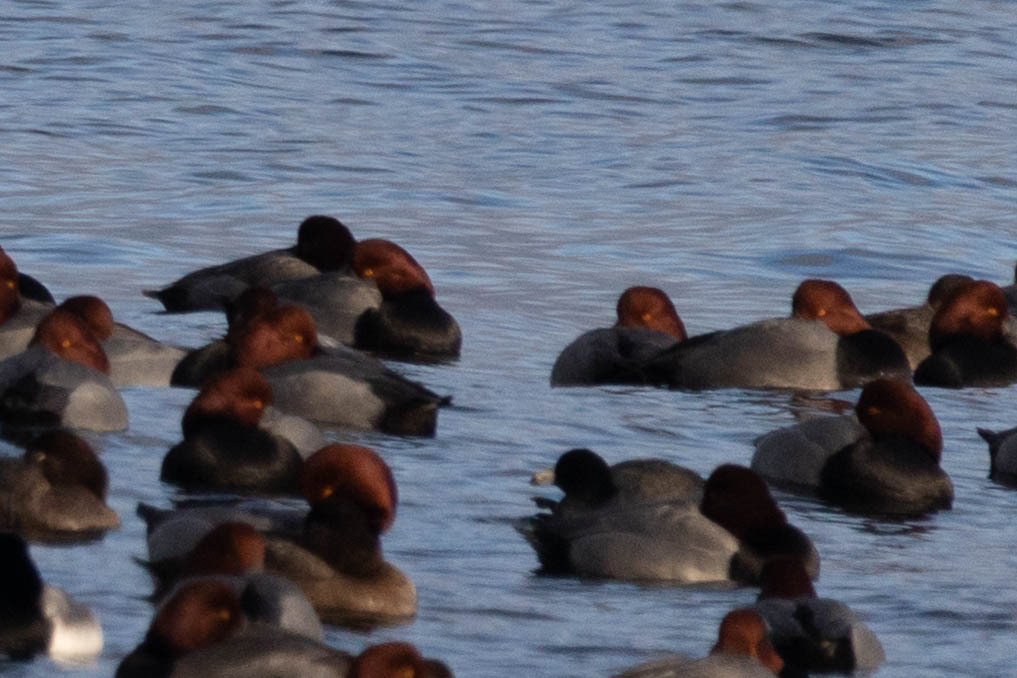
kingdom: Animalia
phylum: Chordata
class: Aves
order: Gruiformes
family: Rallidae
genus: Fulica
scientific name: Fulica americana
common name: American coot
